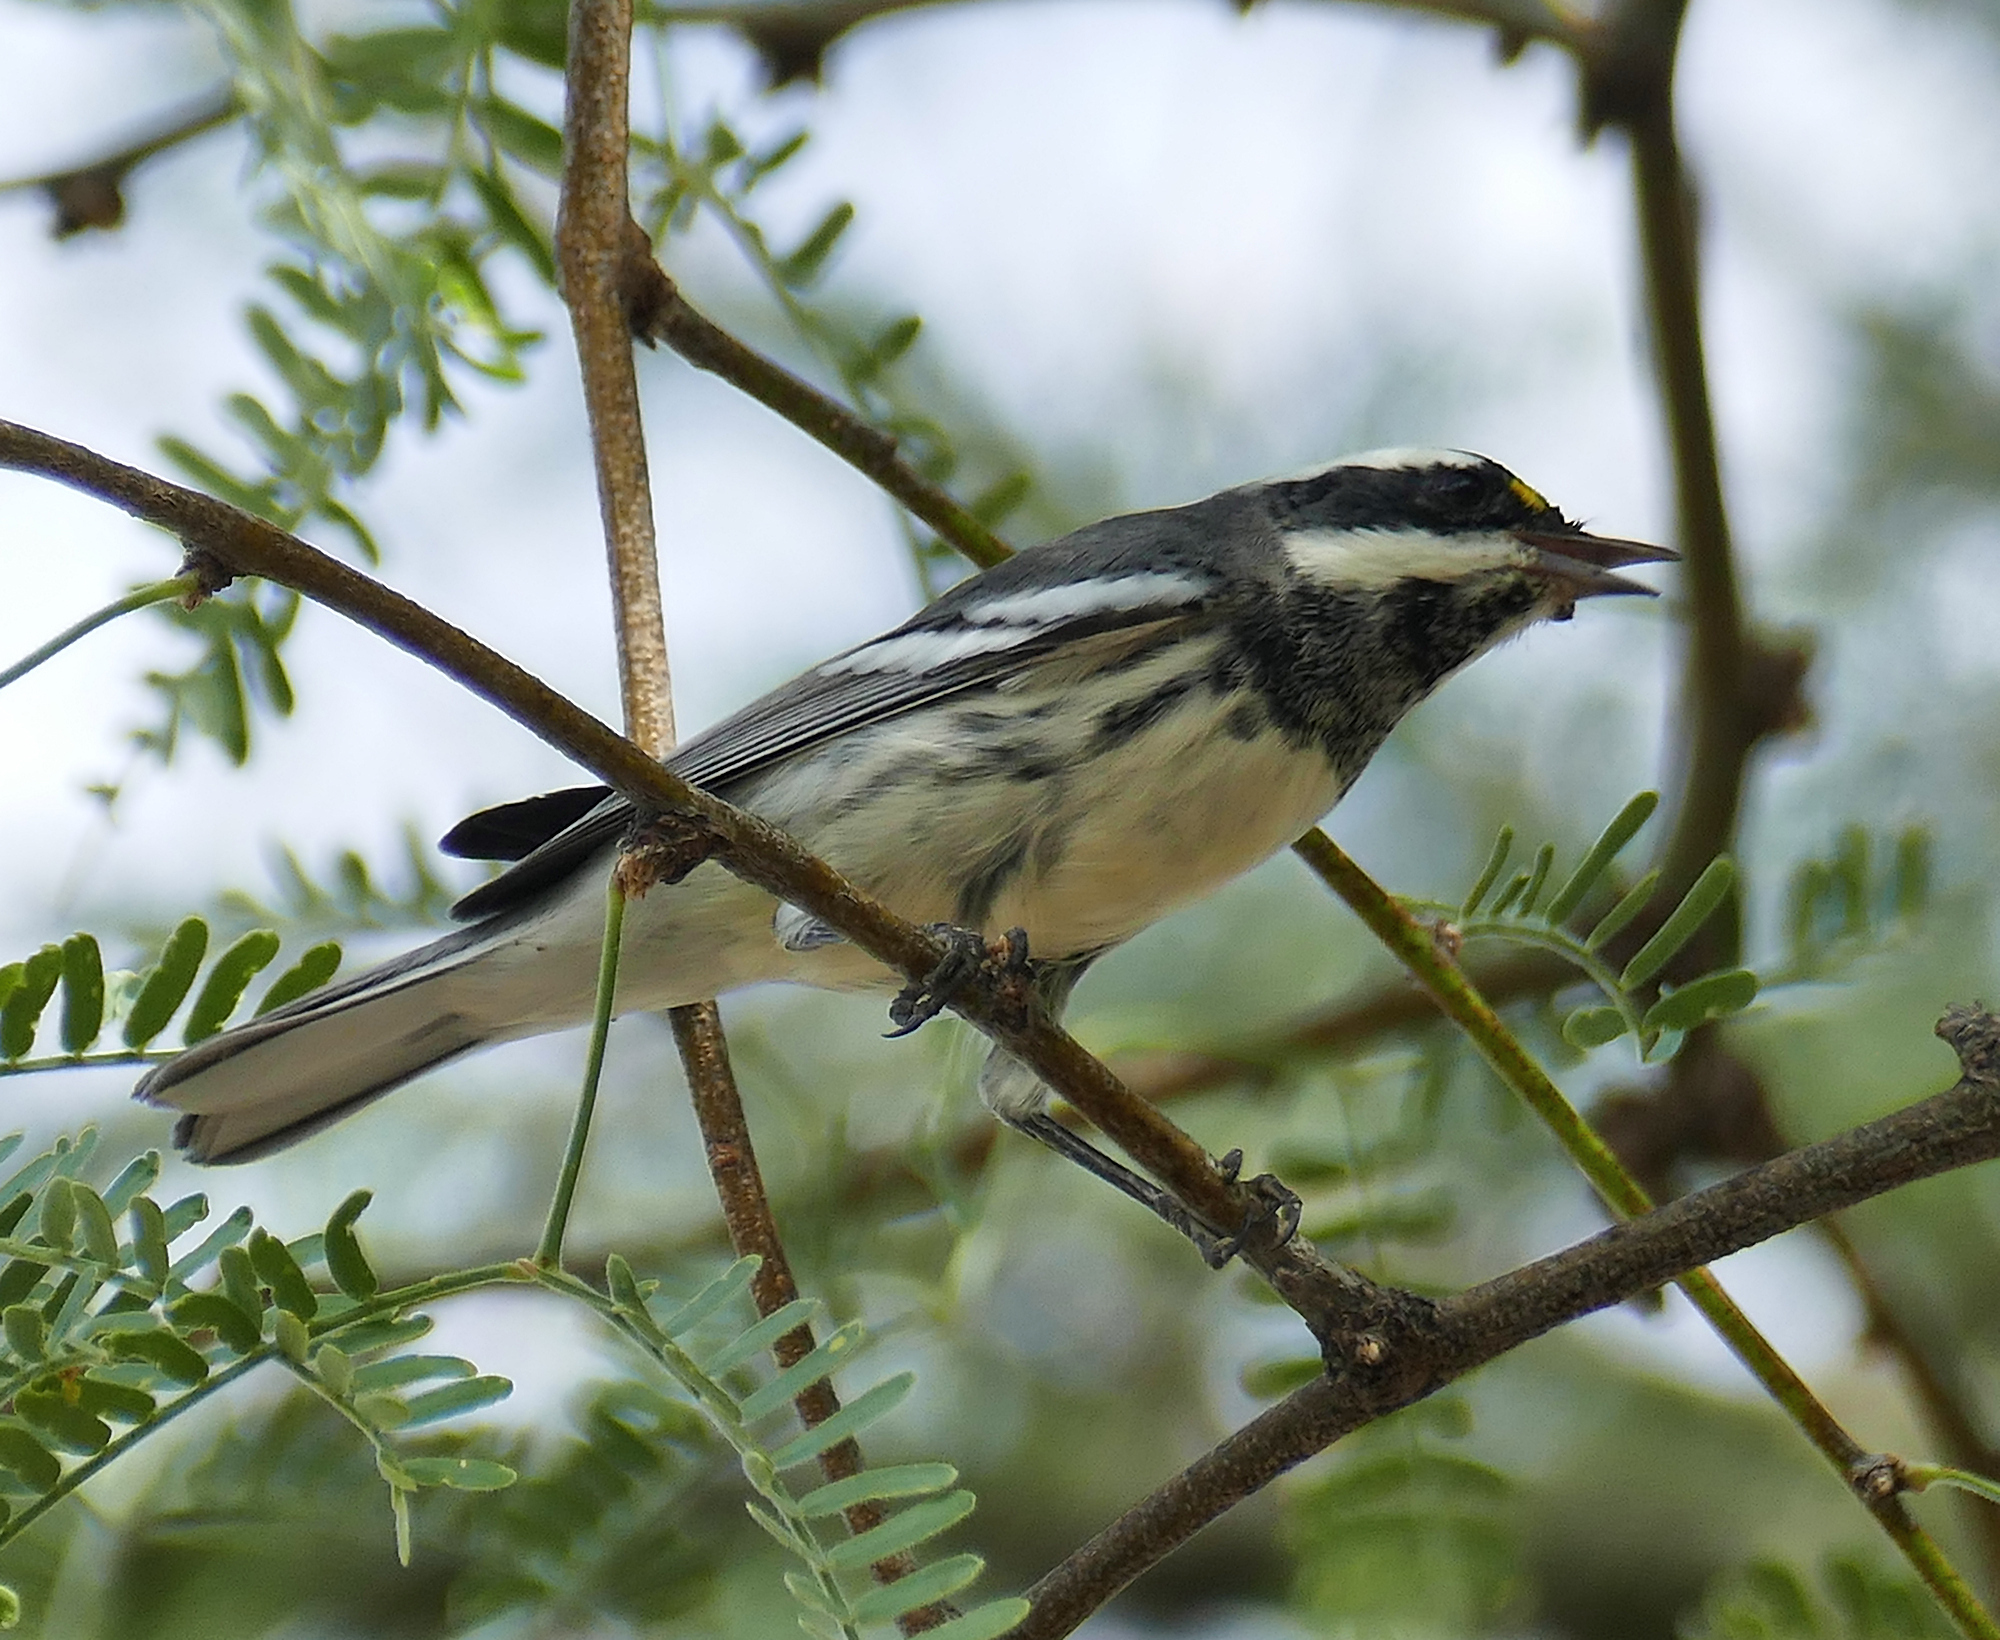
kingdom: Animalia
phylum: Chordata
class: Aves
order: Passeriformes
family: Parulidae
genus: Setophaga
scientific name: Setophaga nigrescens
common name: Black-throated gray warbler
